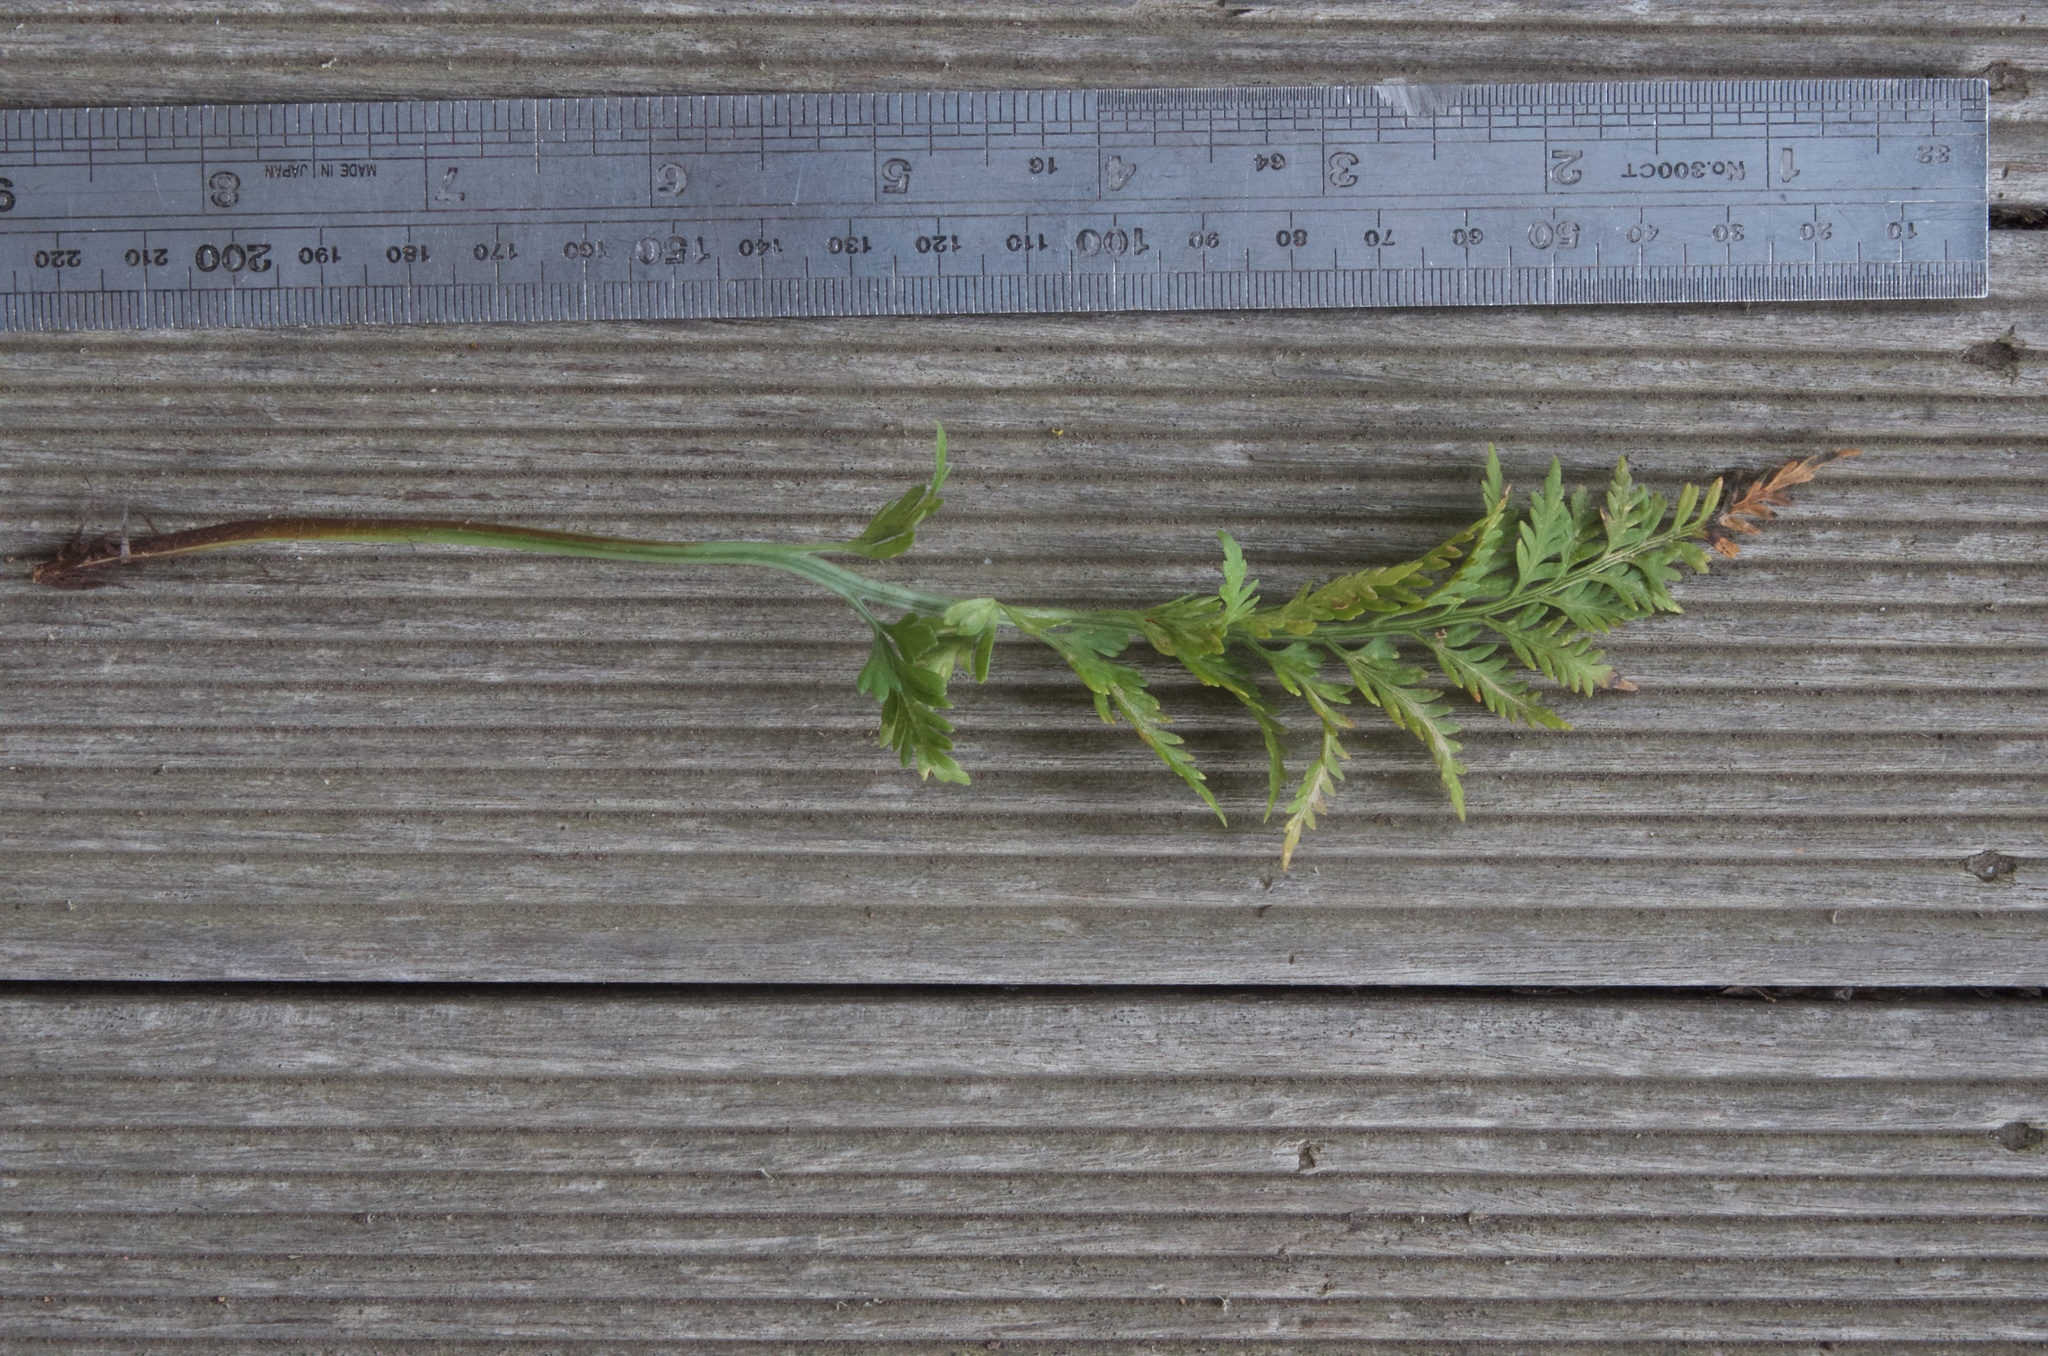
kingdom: Plantae
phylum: Tracheophyta
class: Polypodiopsida
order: Polypodiales
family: Aspleniaceae
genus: Asplenium
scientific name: Asplenium appendiculatum
